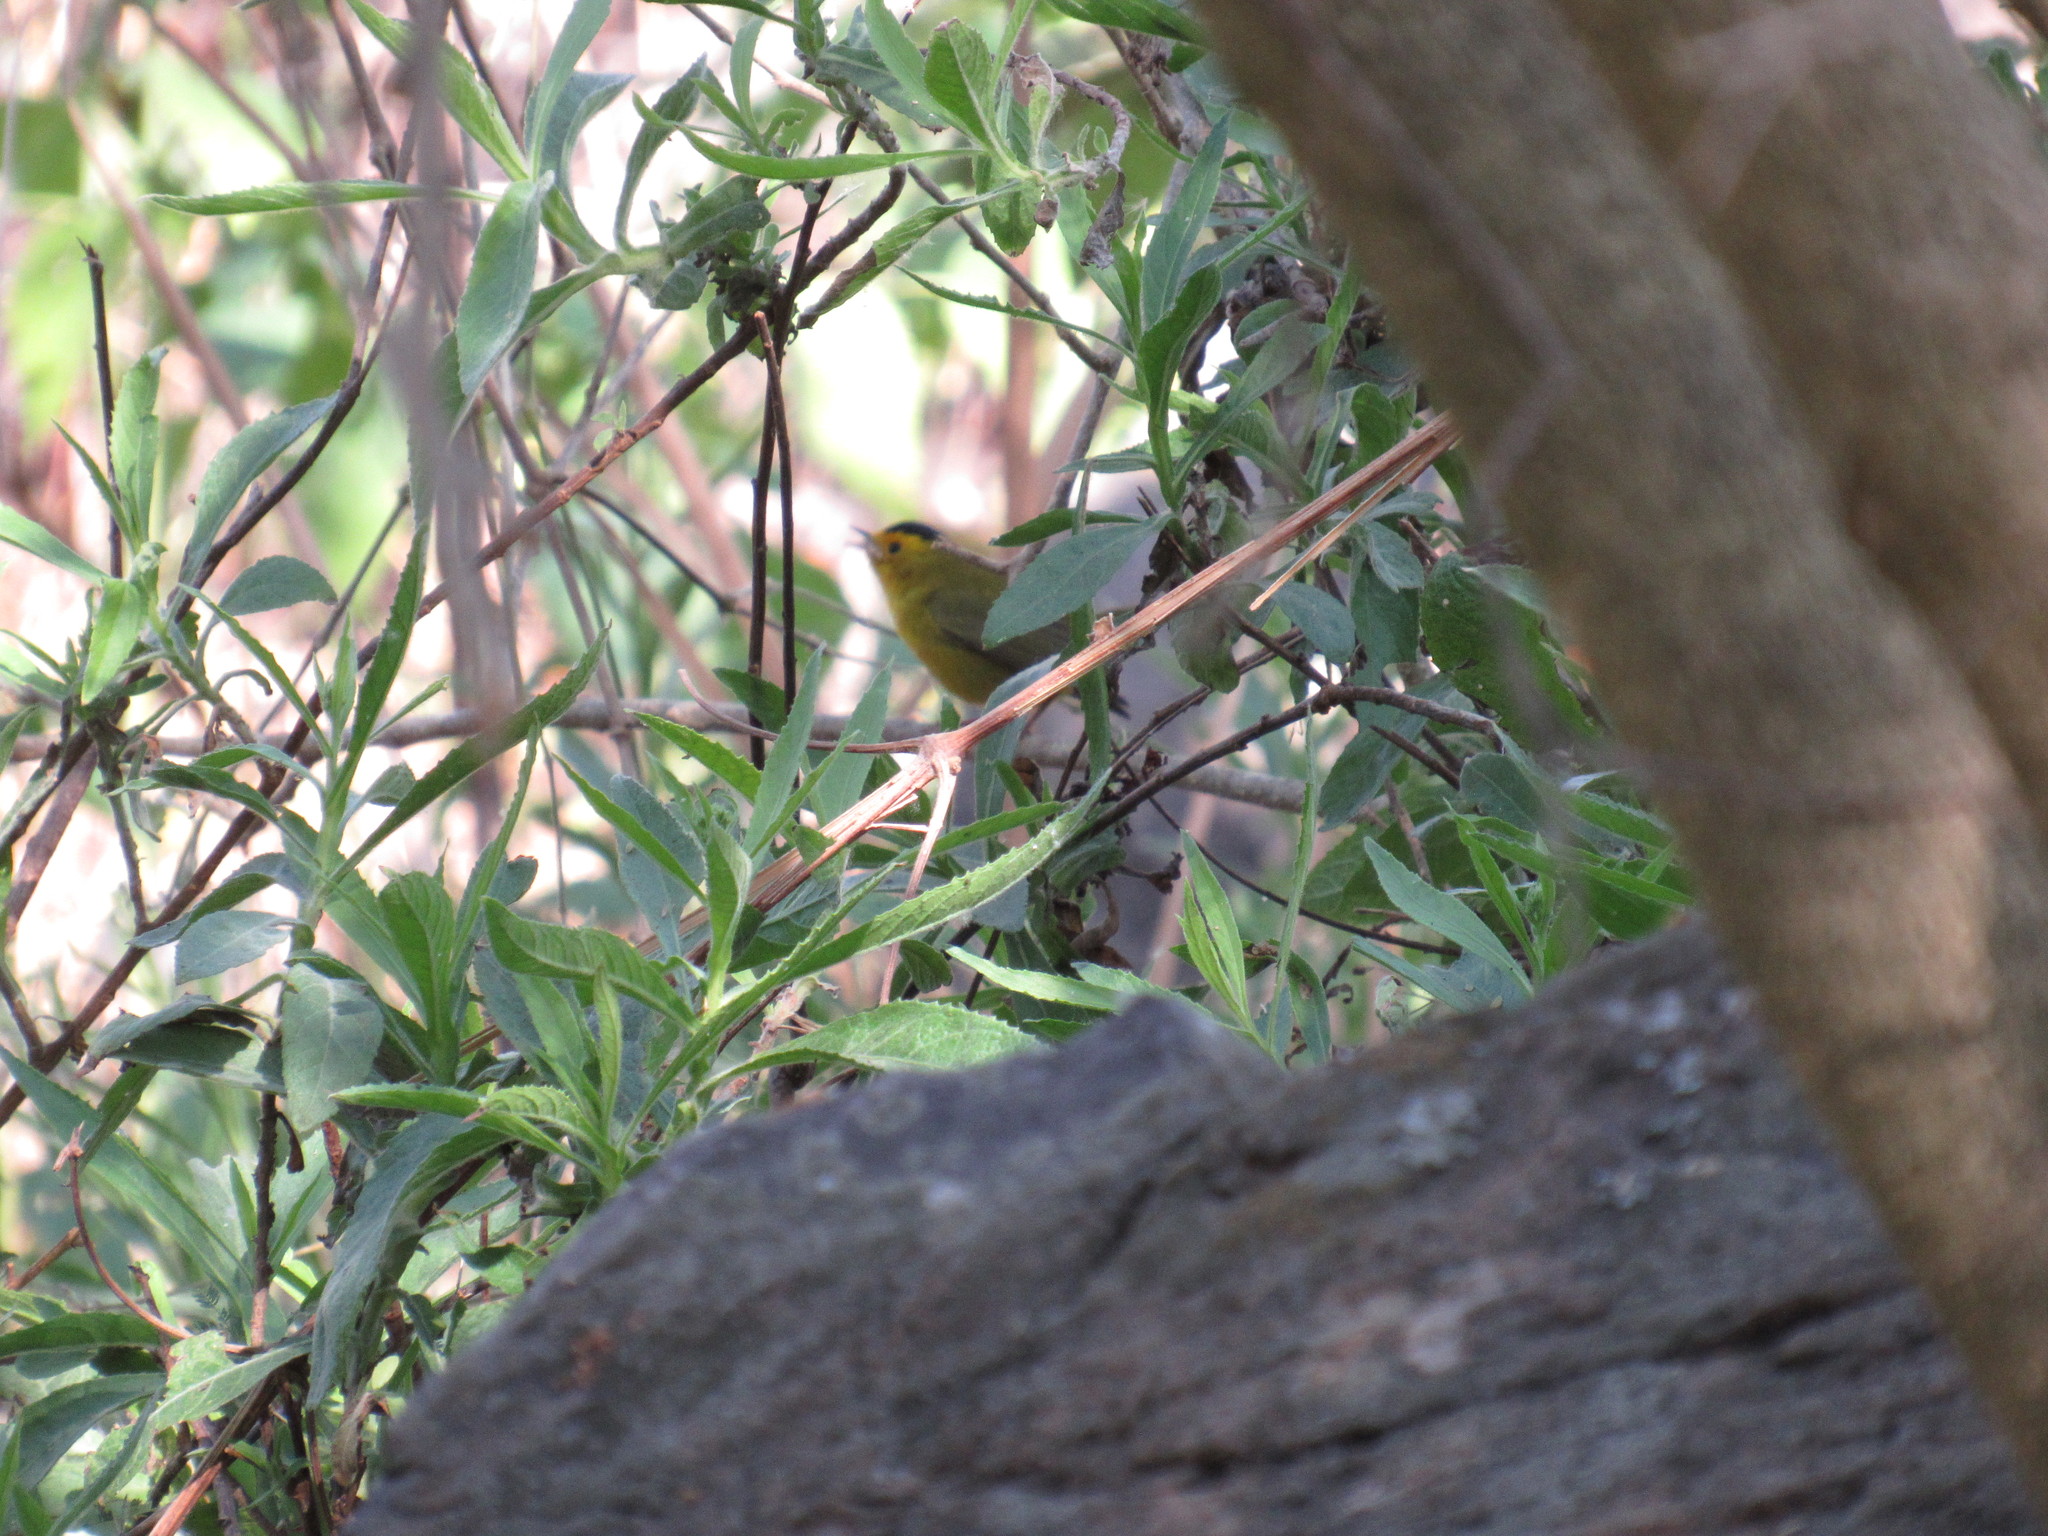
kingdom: Animalia
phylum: Chordata
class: Aves
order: Passeriformes
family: Parulidae
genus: Cardellina
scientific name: Cardellina pusilla
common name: Wilson's warbler
